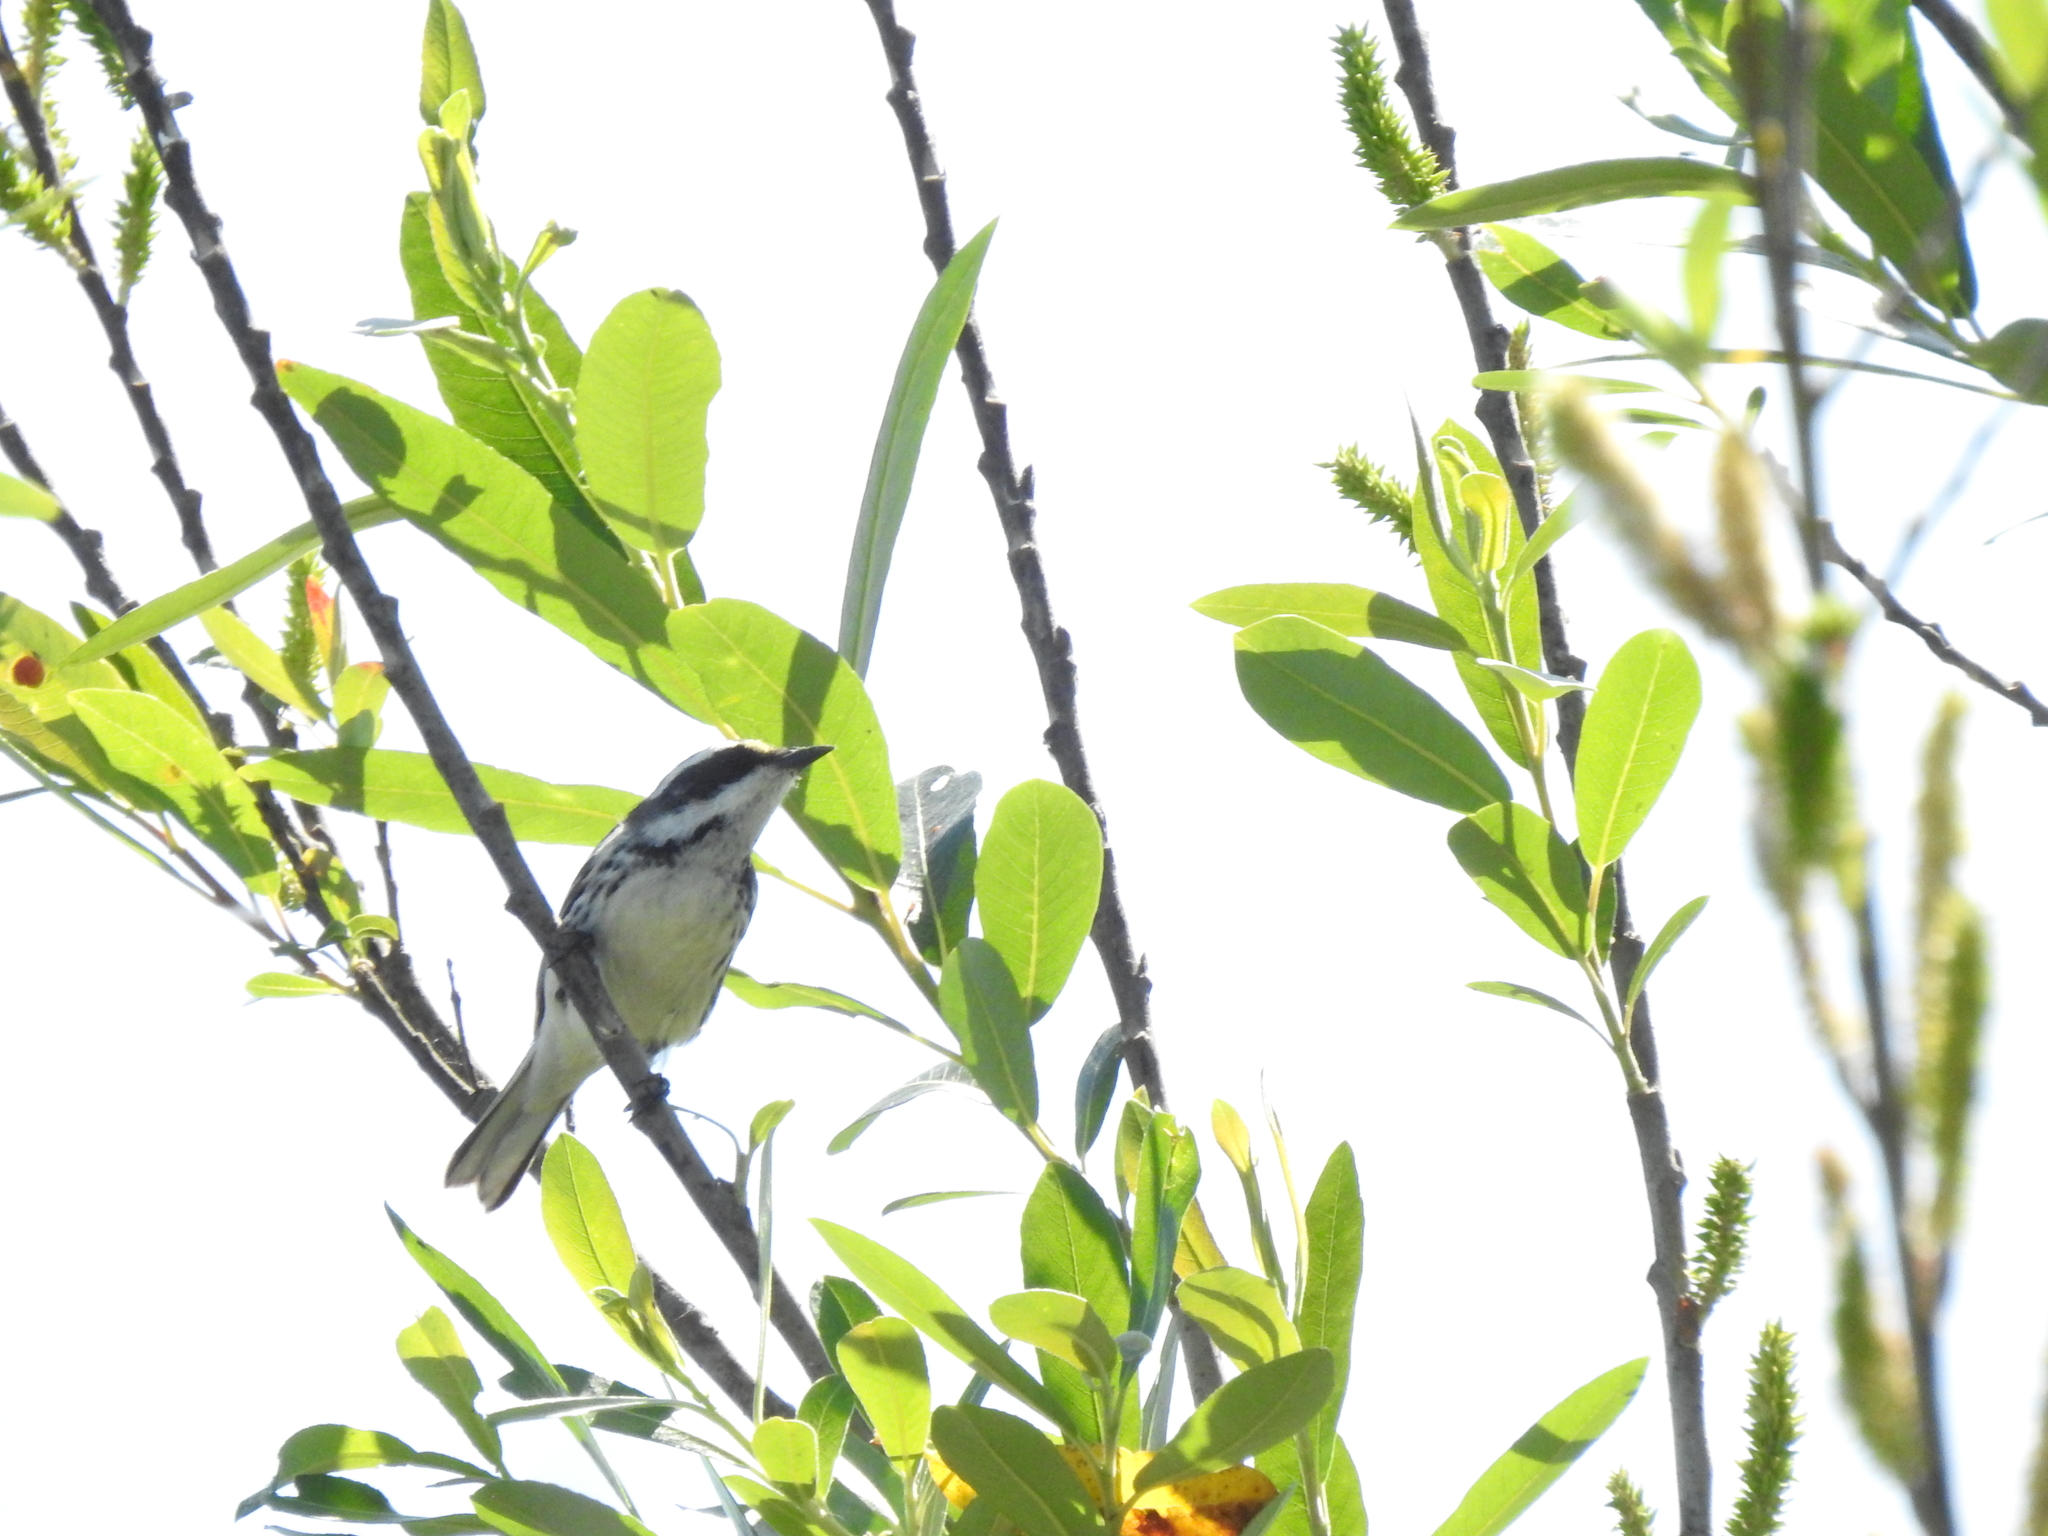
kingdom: Animalia
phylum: Chordata
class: Aves
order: Passeriformes
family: Parulidae
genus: Setophaga
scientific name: Setophaga nigrescens
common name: Black-throated gray warbler
